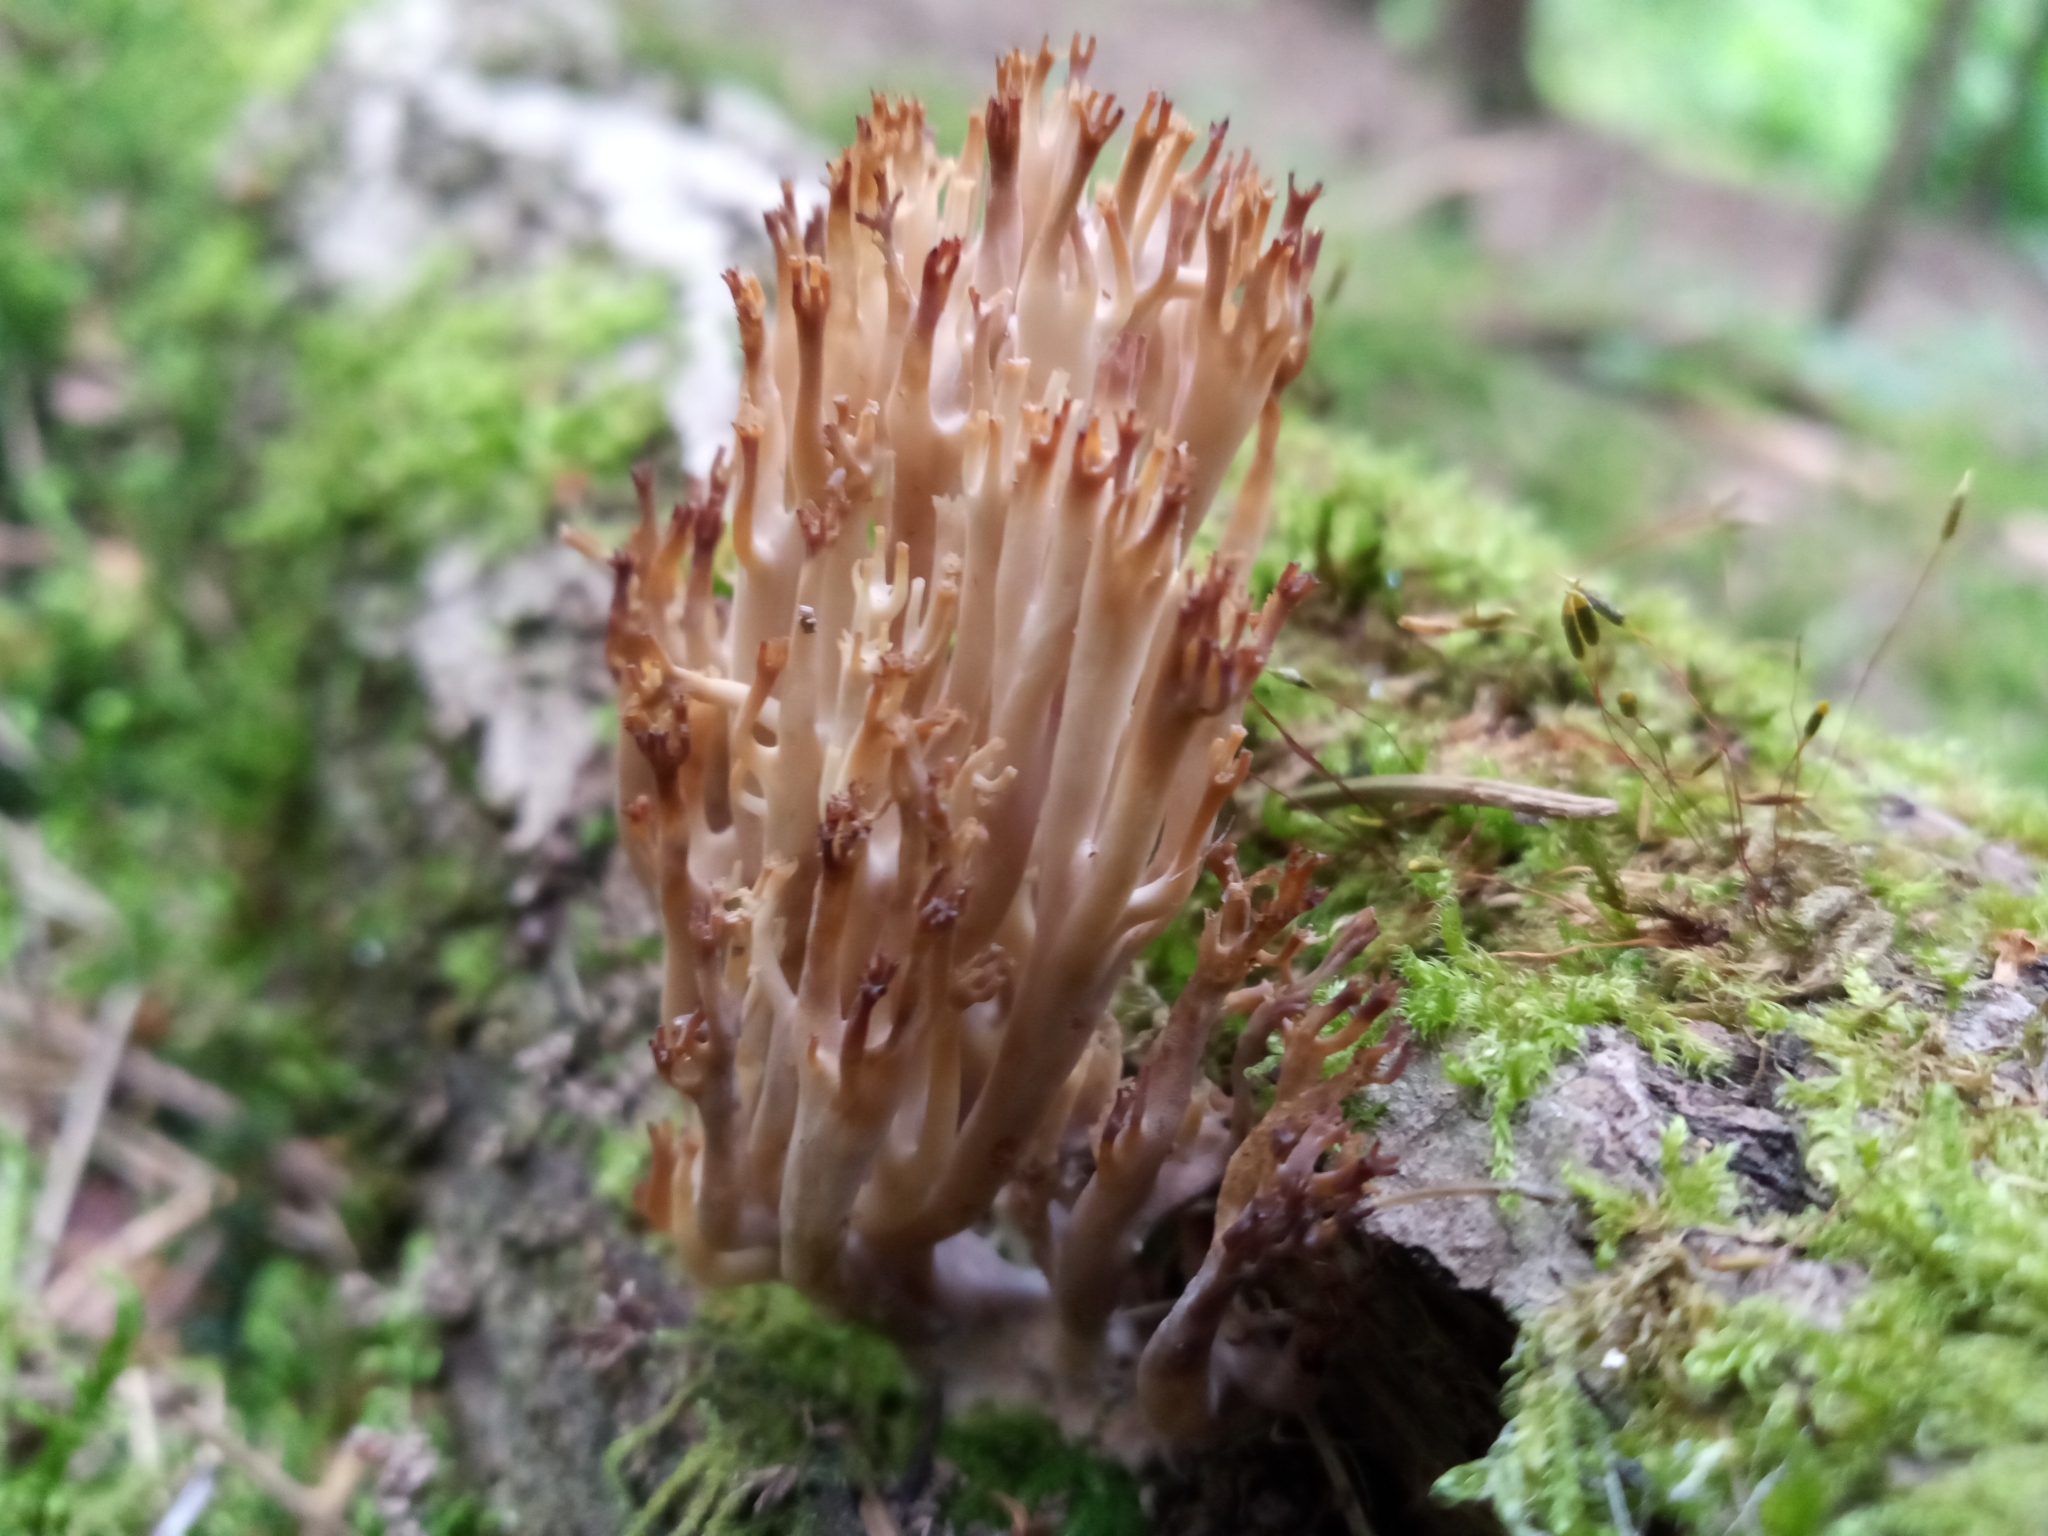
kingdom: Fungi
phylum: Basidiomycota
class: Agaricomycetes
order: Russulales
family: Auriscalpiaceae
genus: Artomyces
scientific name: Artomyces pyxidatus
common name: Crown-tipped coral fungus
